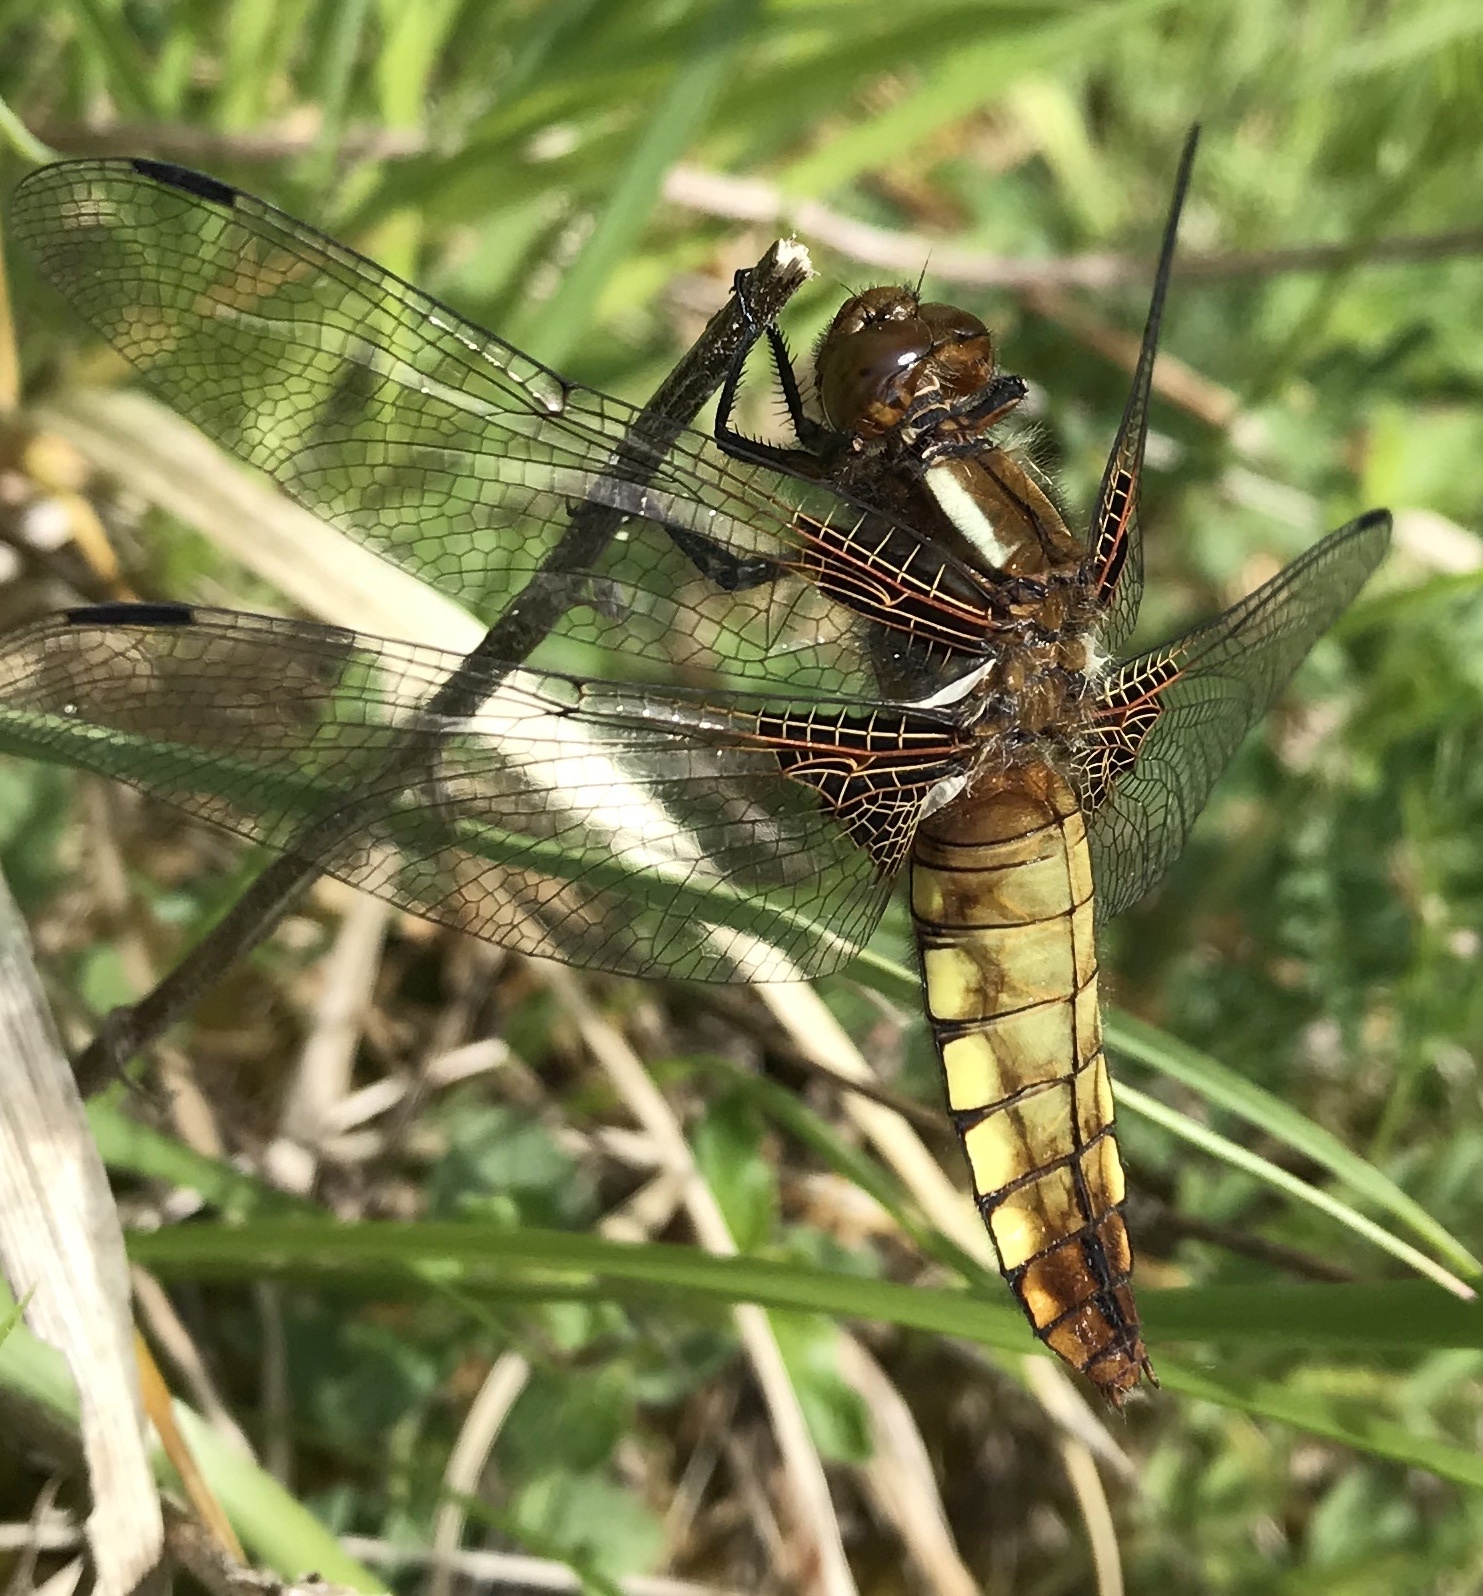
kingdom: Animalia
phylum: Arthropoda
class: Insecta
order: Odonata
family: Libellulidae
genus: Libellula
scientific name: Libellula depressa
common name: Broad-bodied chaser
